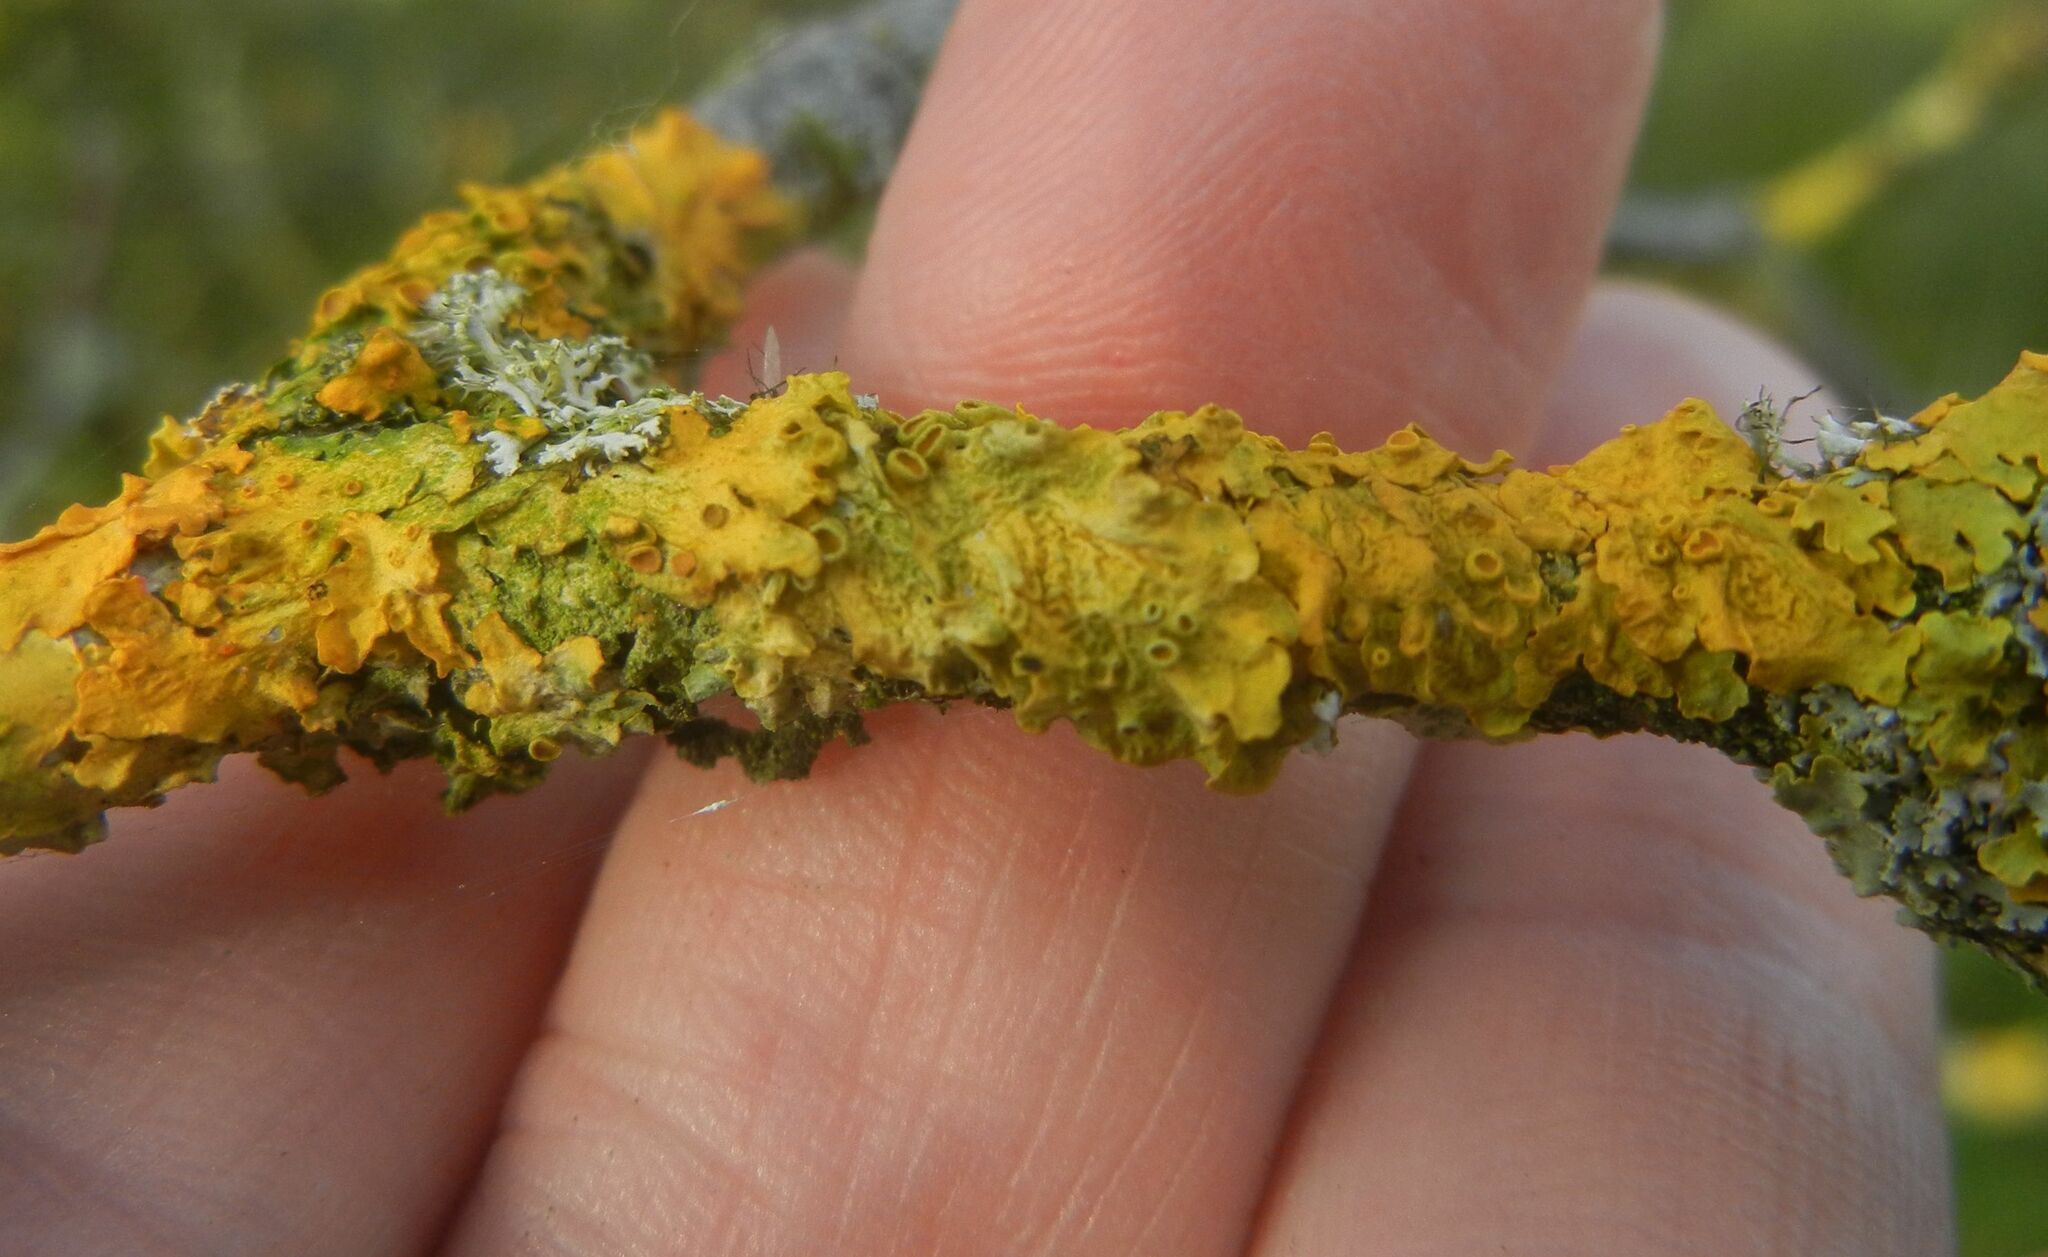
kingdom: Fungi
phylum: Ascomycota
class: Lecanoromycetes
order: Teloschistales
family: Teloschistaceae
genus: Xanthoria
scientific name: Xanthoria parietina
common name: Common orange lichen
